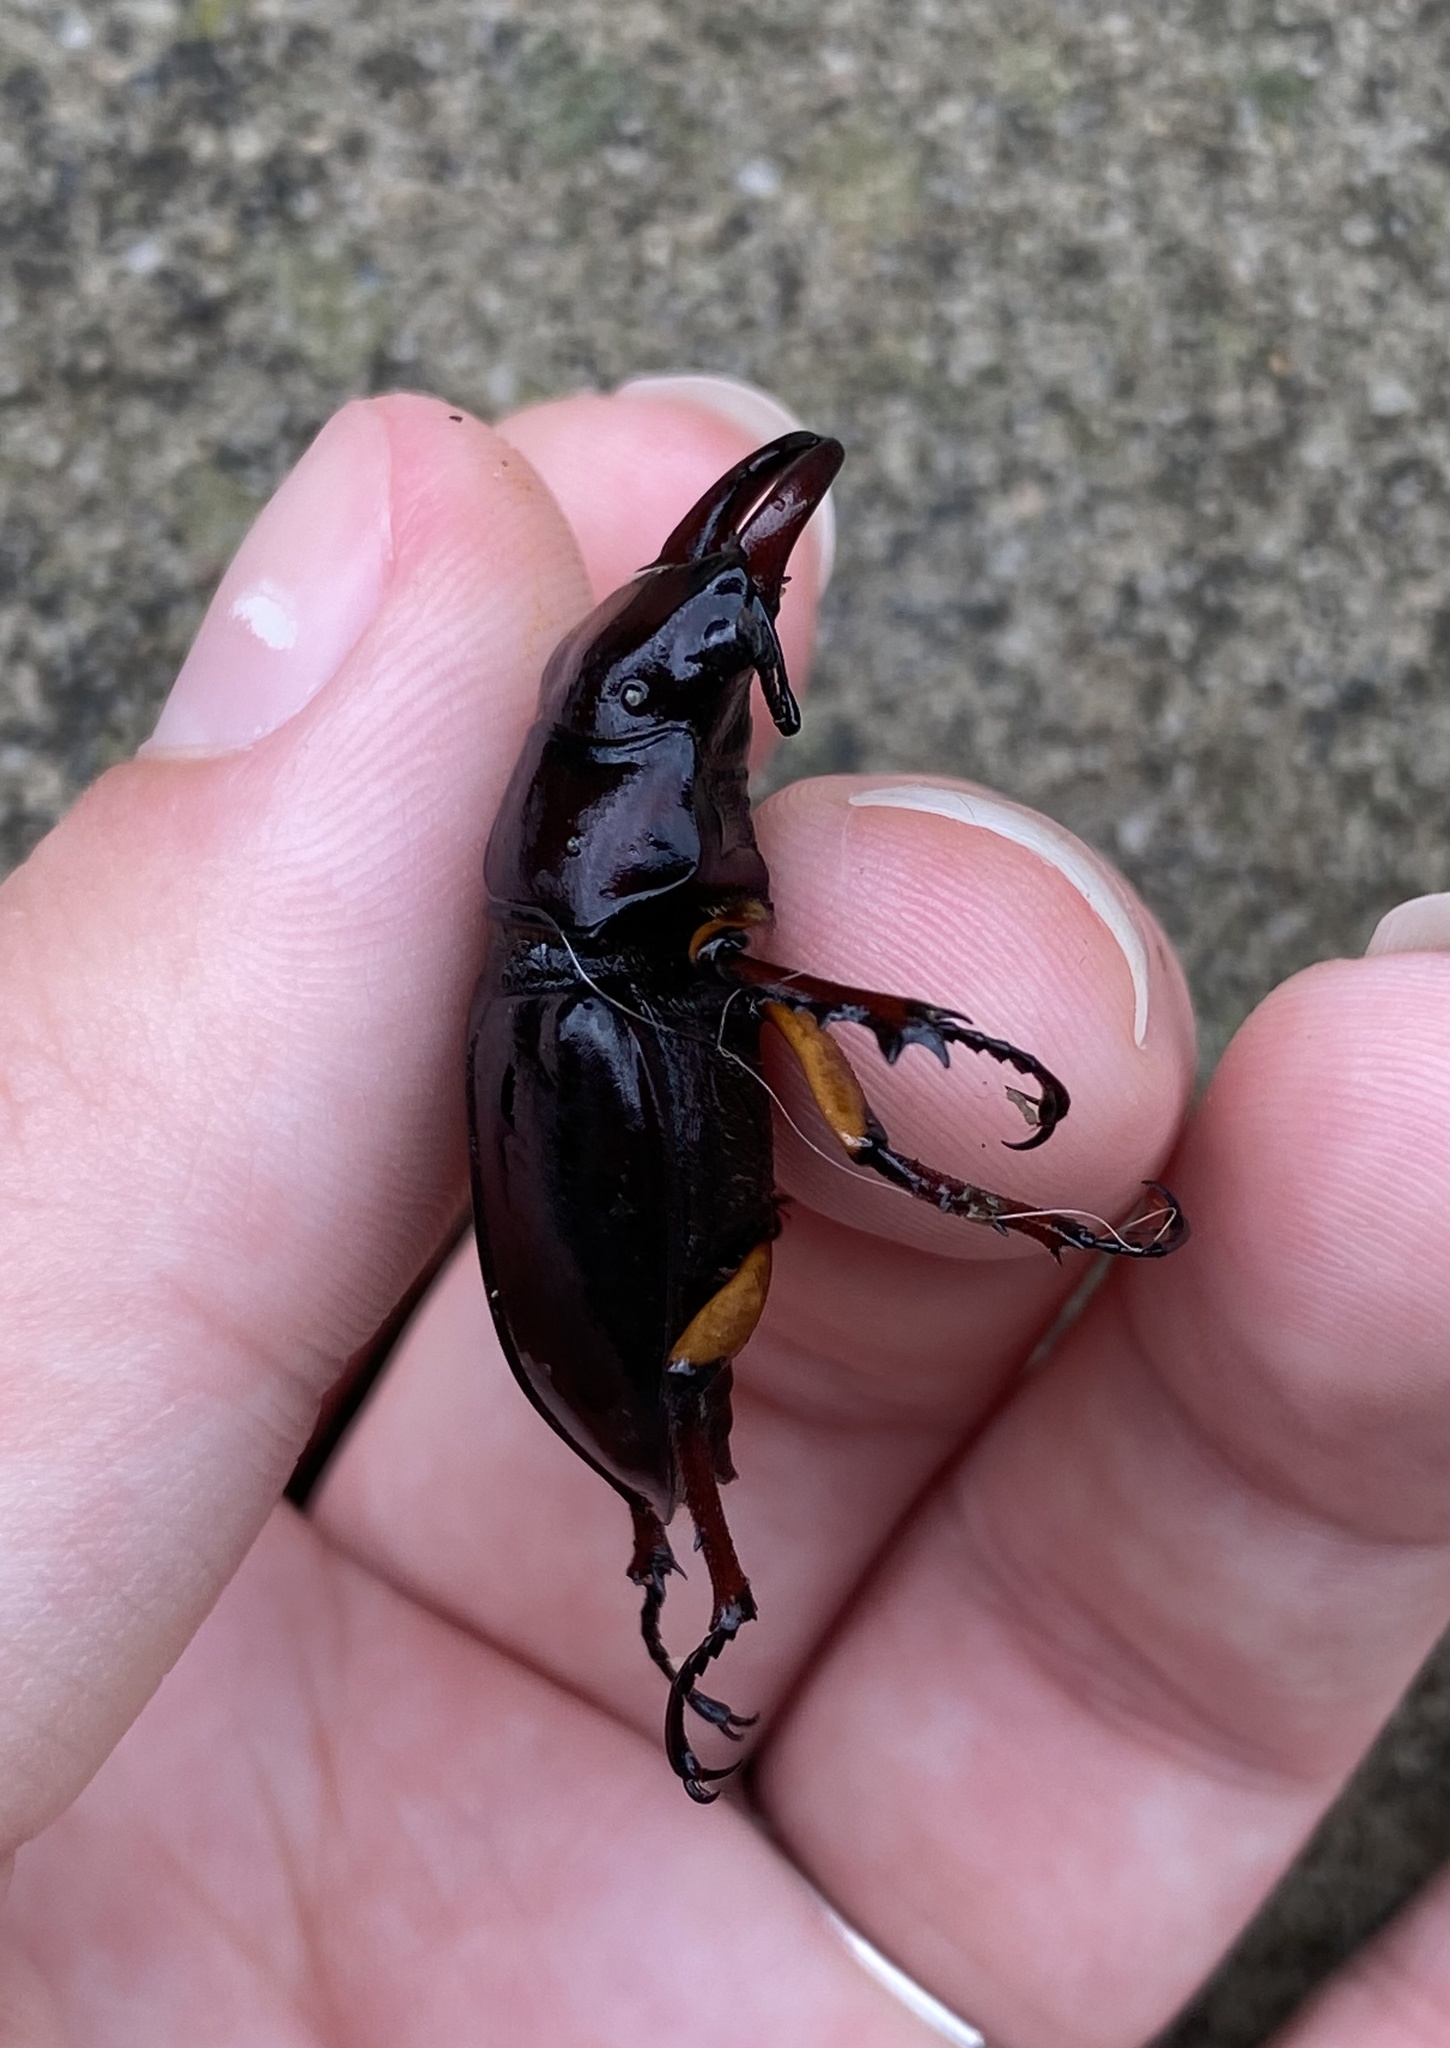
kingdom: Animalia
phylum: Arthropoda
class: Insecta
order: Coleoptera
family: Lucanidae
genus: Lucanus
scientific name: Lucanus capreolus
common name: Stag beetle
